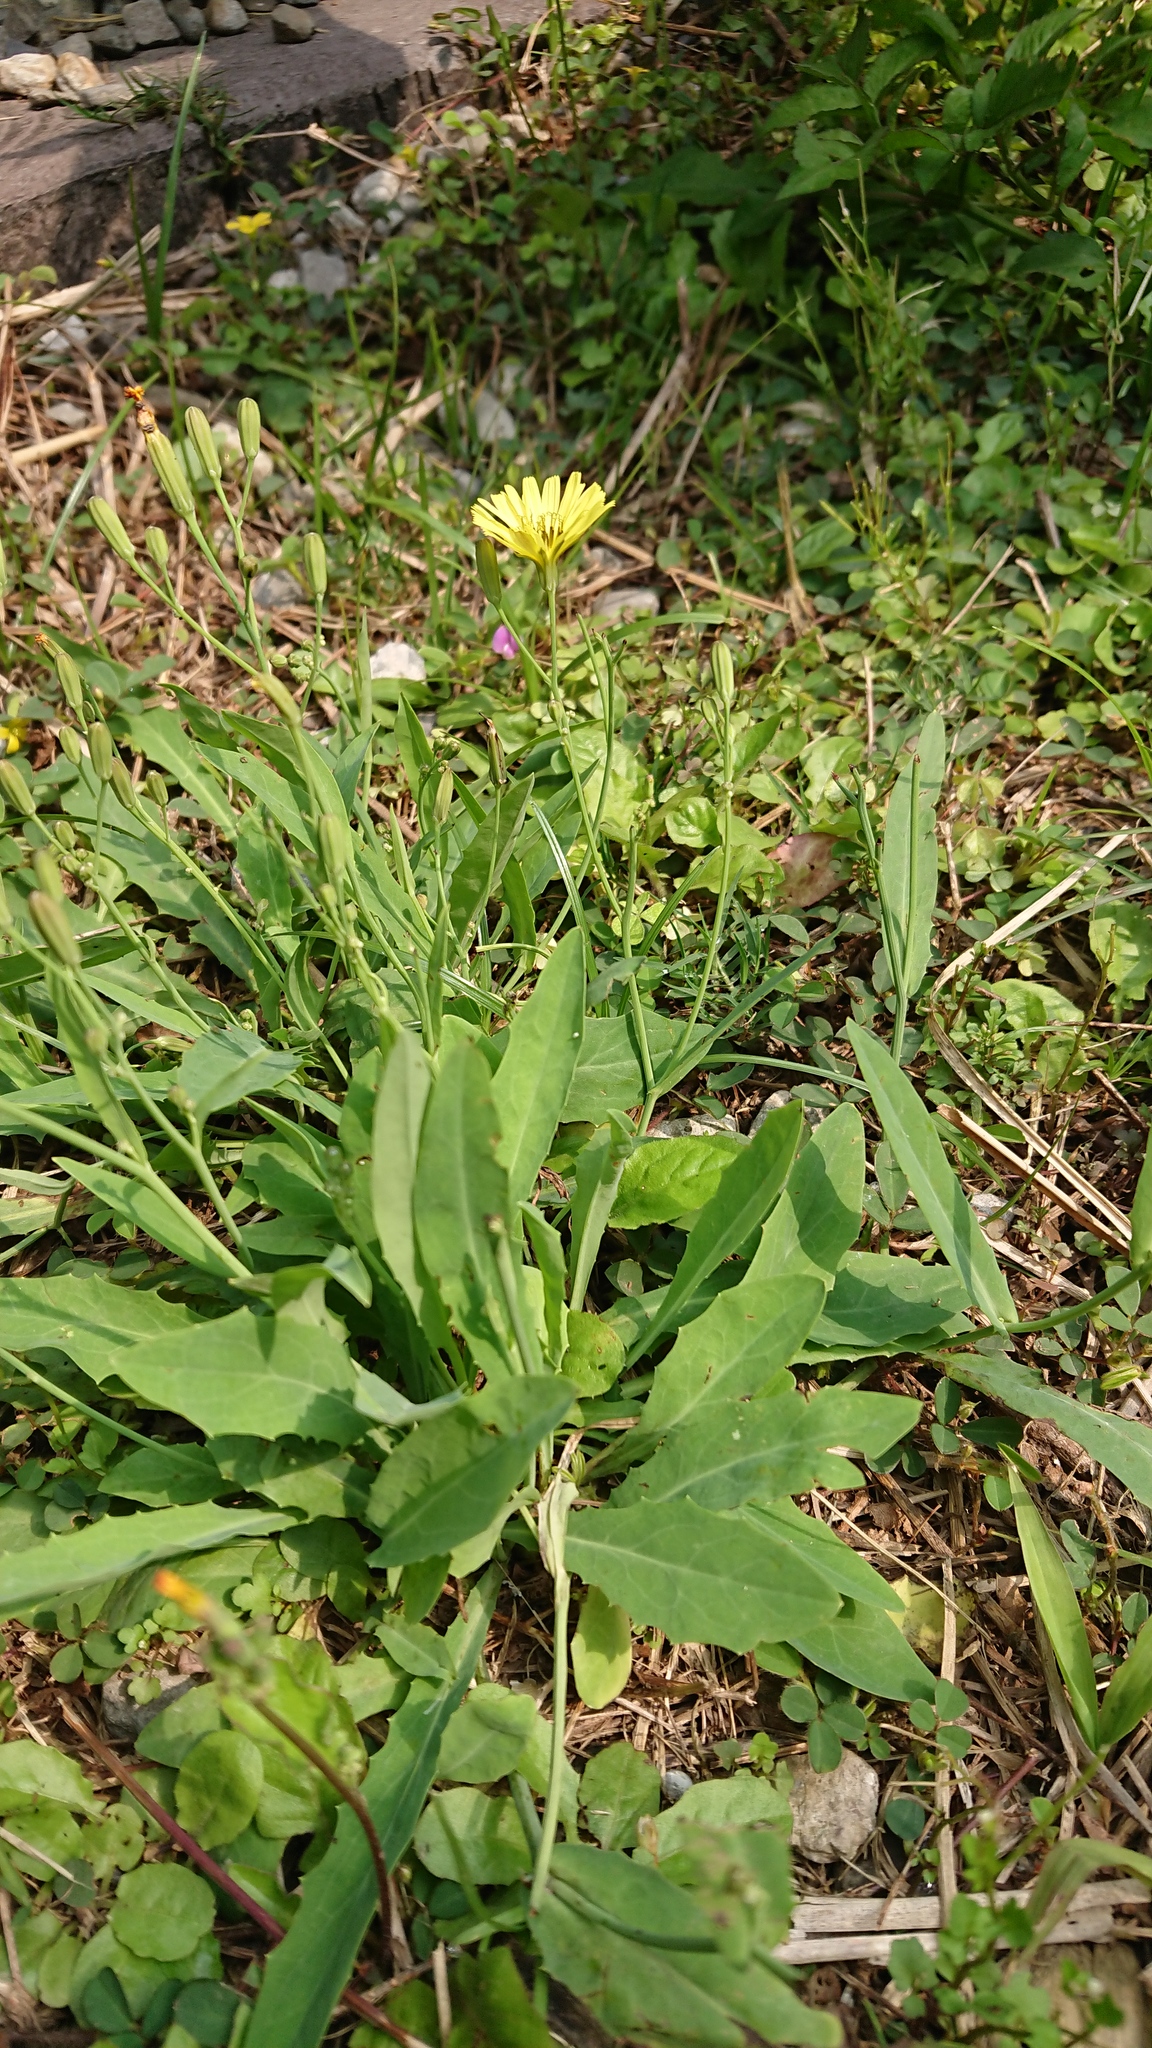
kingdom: Plantae
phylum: Tracheophyta
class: Magnoliopsida
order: Asterales
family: Asteraceae
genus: Ixeris
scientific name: Ixeris chinensis
